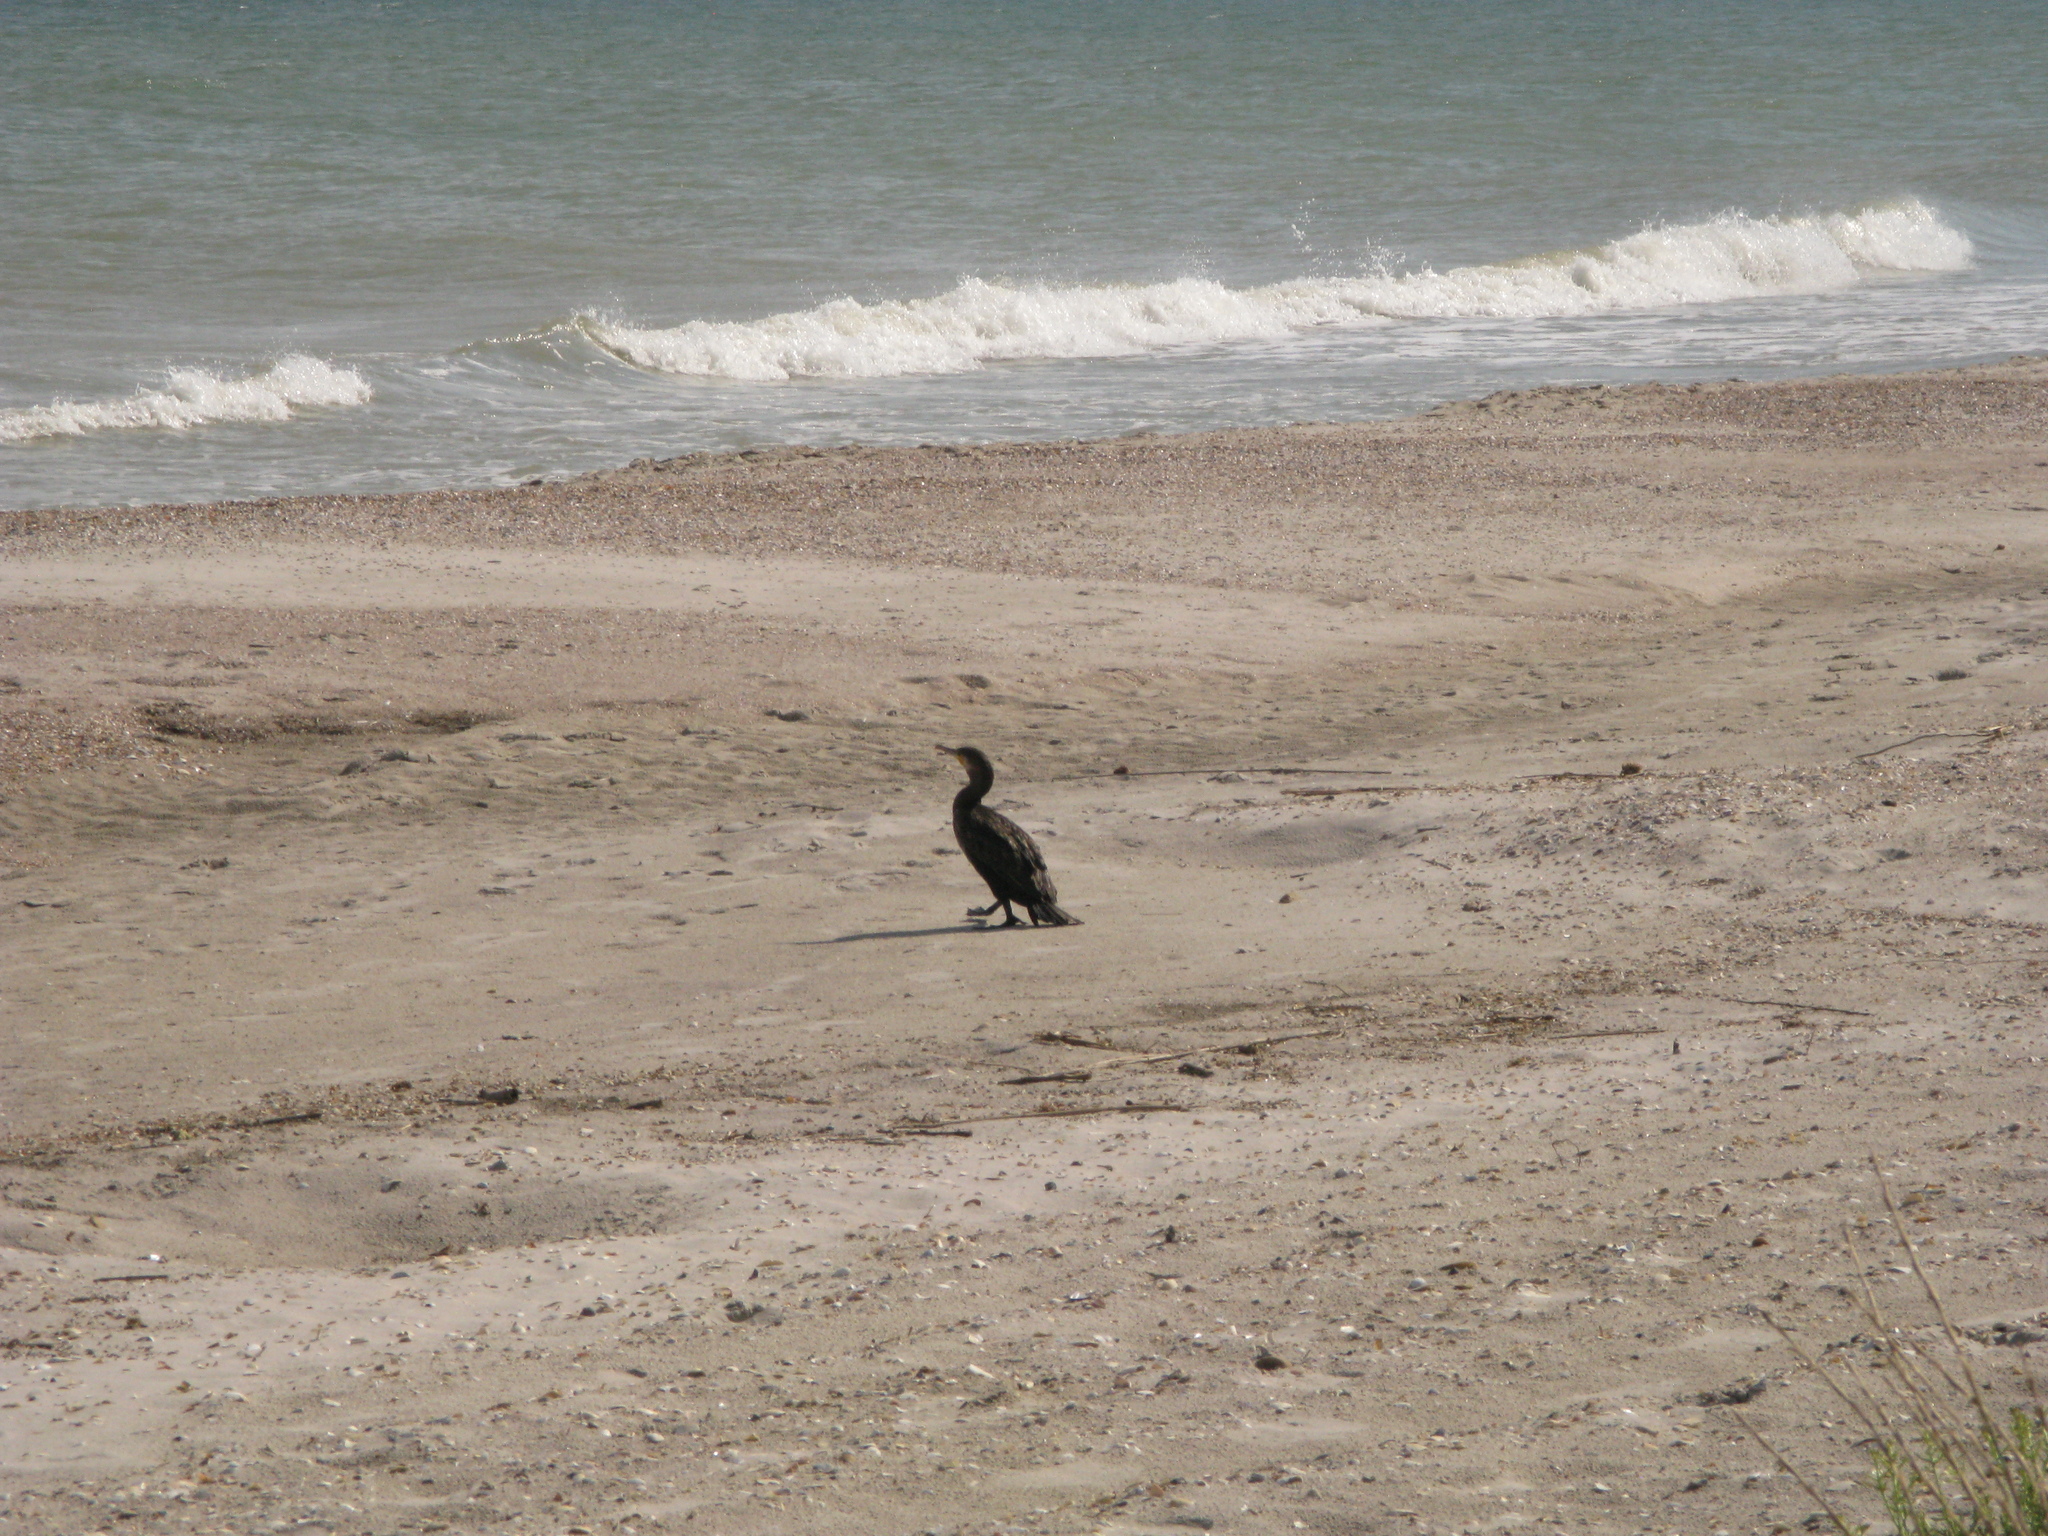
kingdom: Animalia
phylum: Chordata
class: Aves
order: Suliformes
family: Phalacrocoracidae
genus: Phalacrocorax
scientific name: Phalacrocorax carbo
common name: Great cormorant
